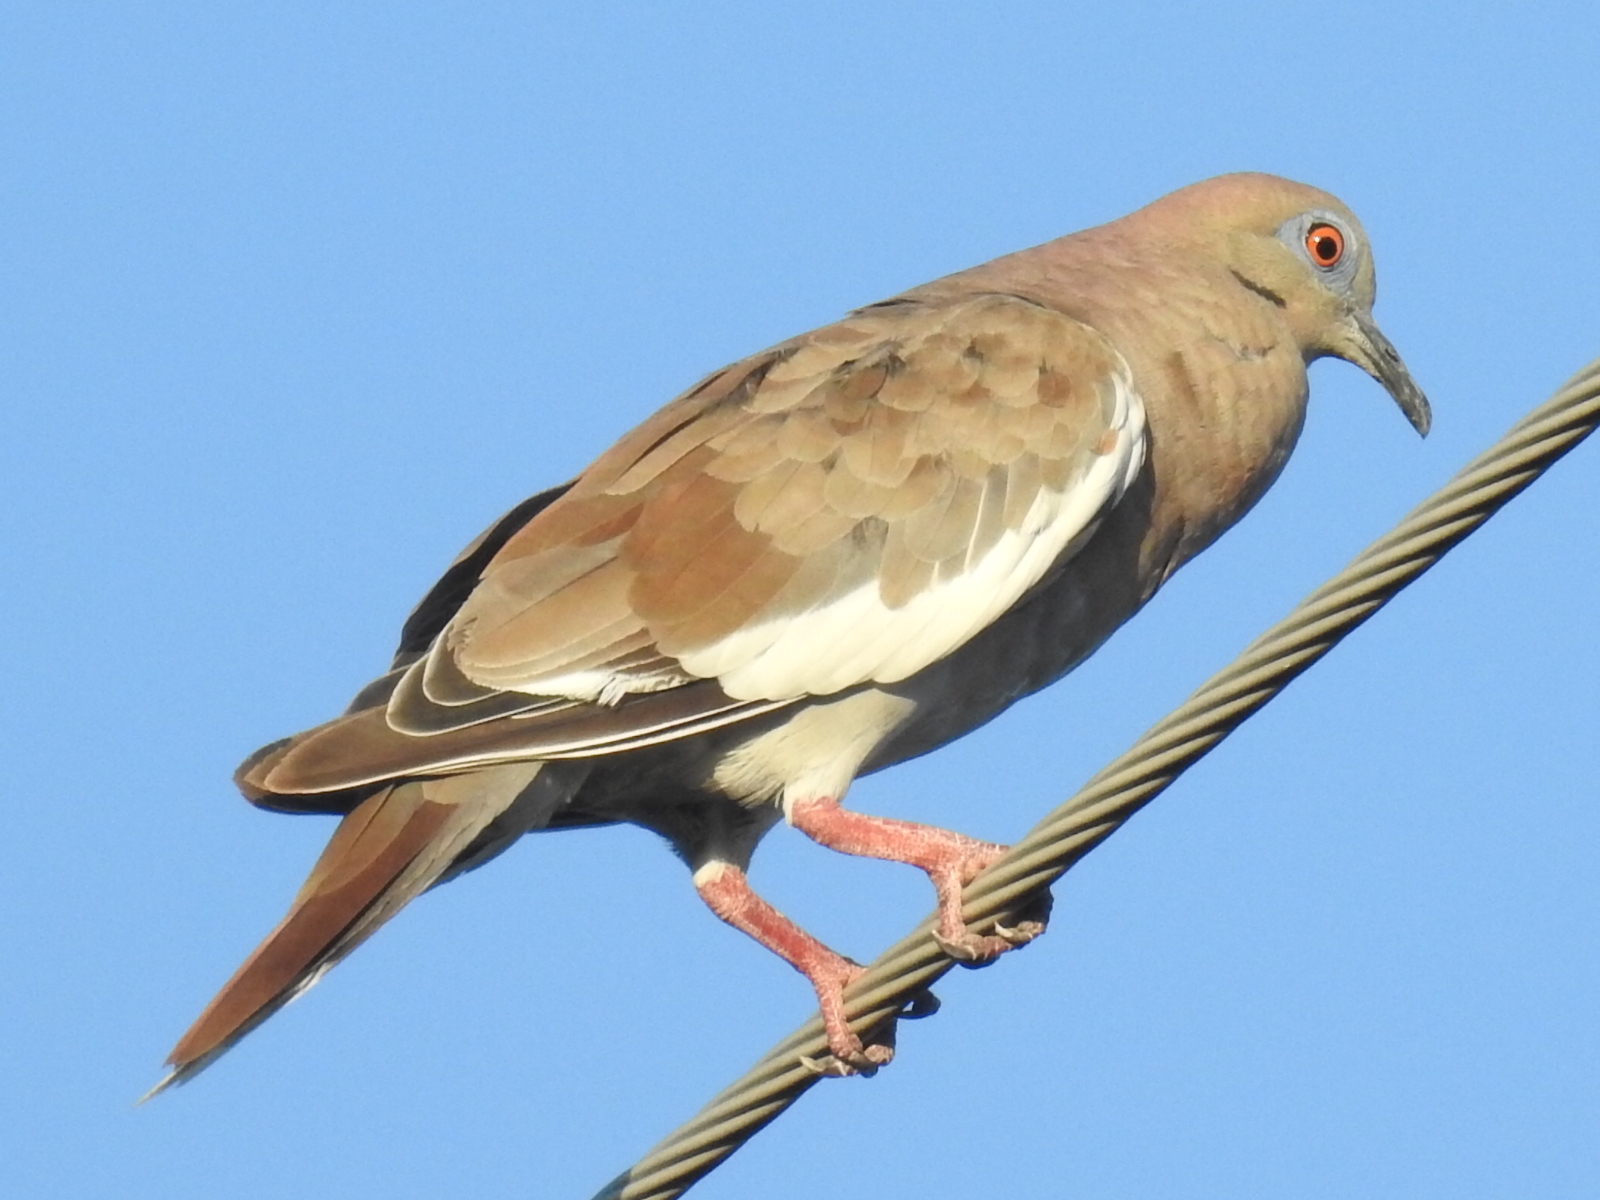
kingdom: Animalia
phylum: Chordata
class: Aves
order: Columbiformes
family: Columbidae
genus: Zenaida
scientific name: Zenaida asiatica
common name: White-winged dove
